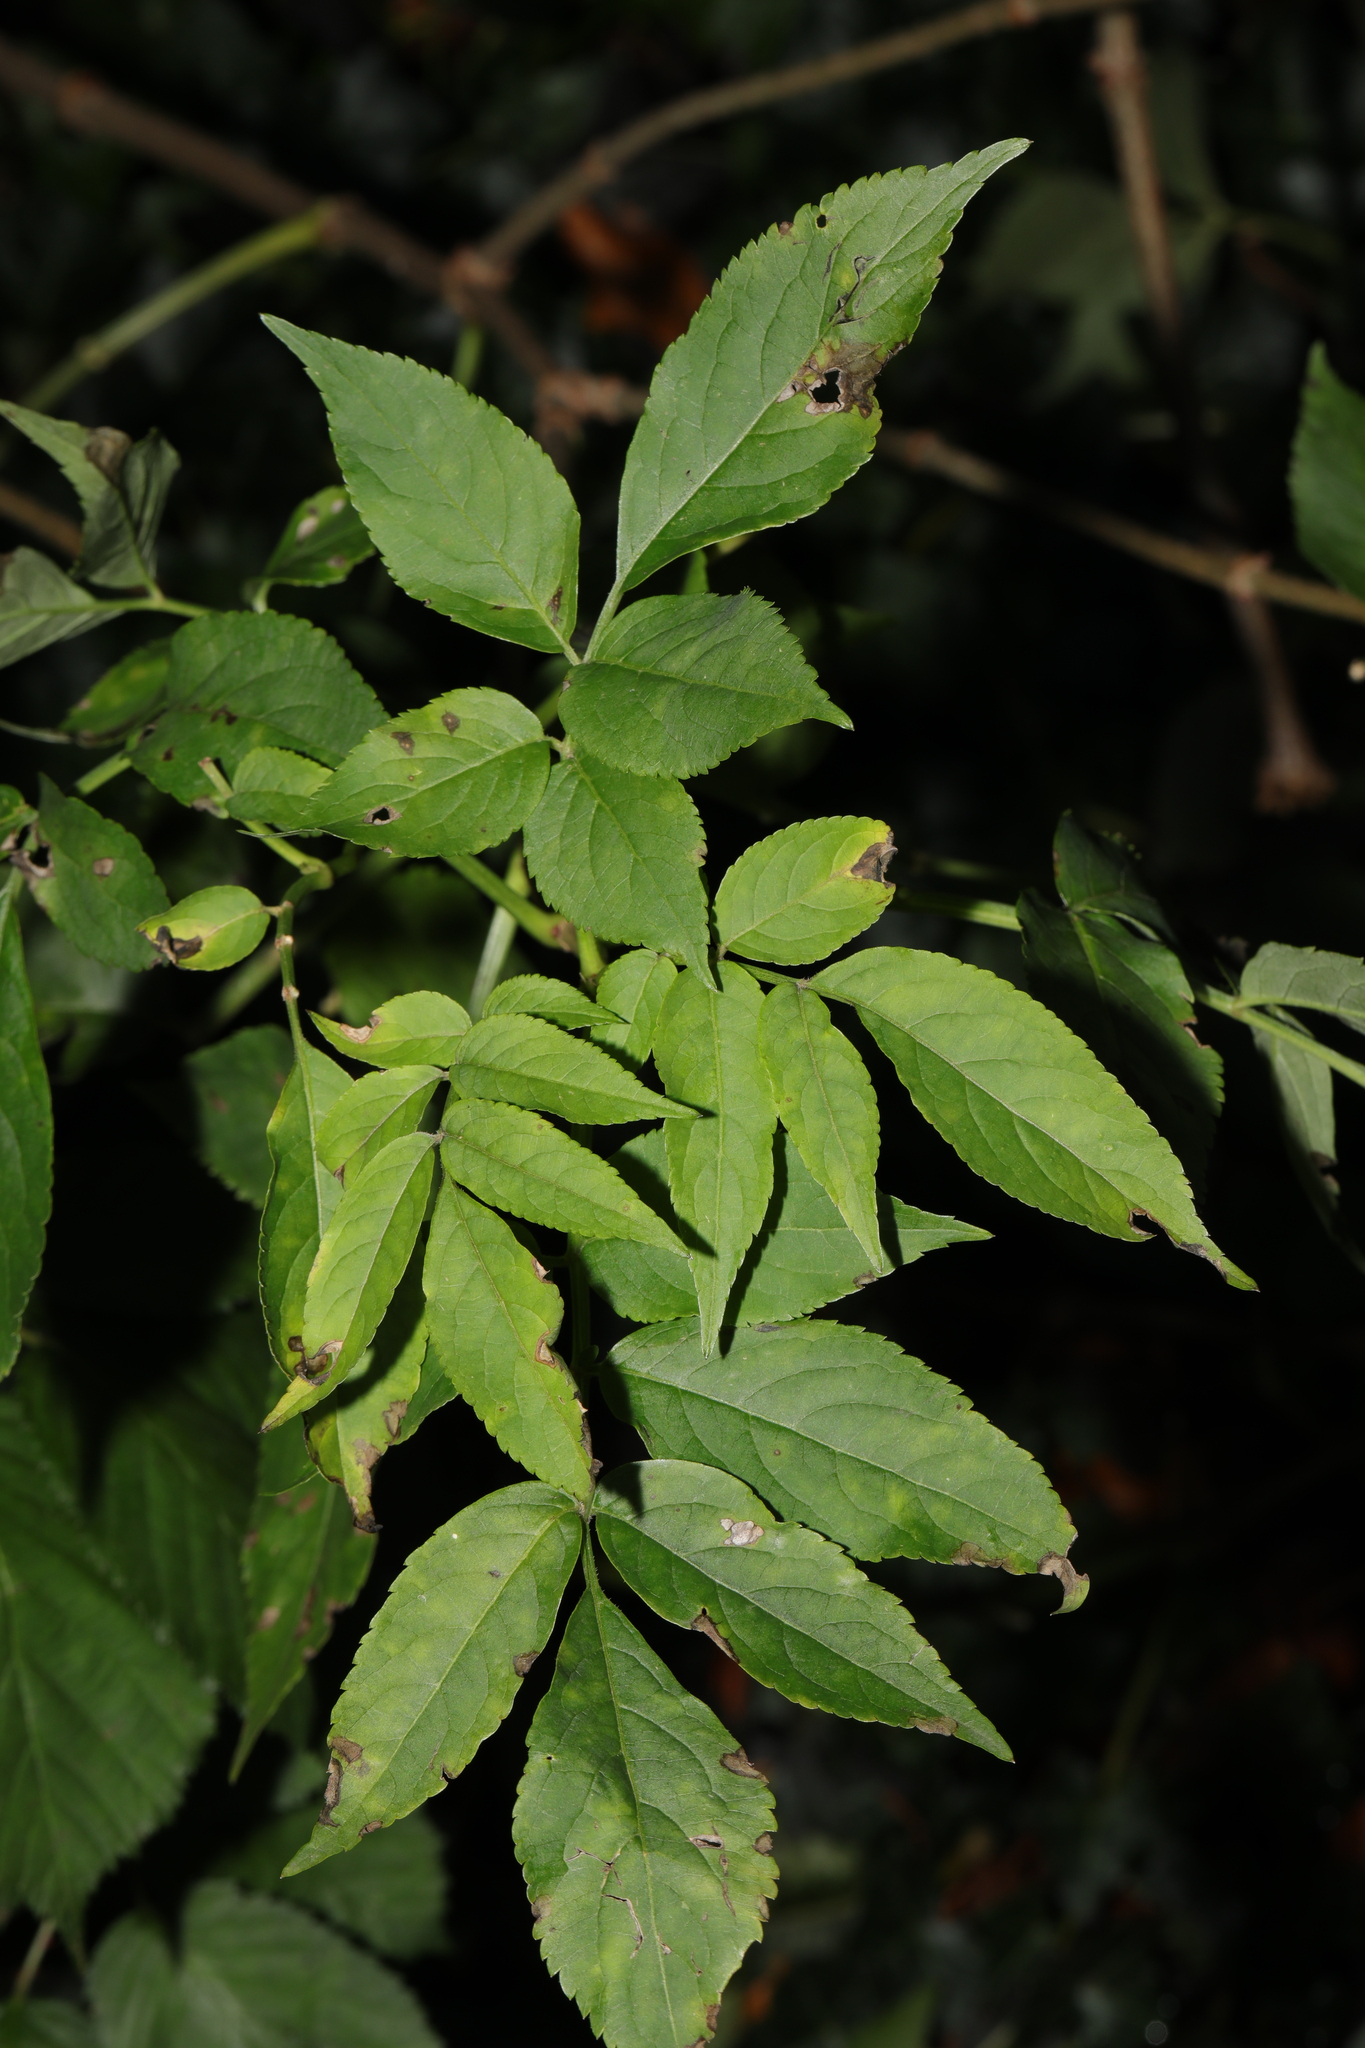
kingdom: Plantae
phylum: Tracheophyta
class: Magnoliopsida
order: Dipsacales
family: Viburnaceae
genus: Sambucus
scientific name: Sambucus nigra
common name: Elder
